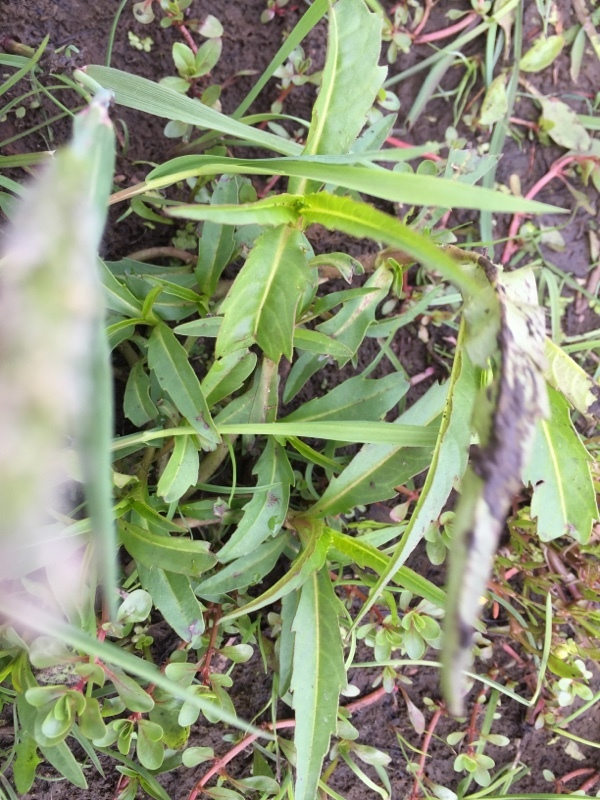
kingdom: Plantae
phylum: Tracheophyta
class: Magnoliopsida
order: Asterales
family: Asteraceae
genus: Bidens
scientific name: Bidens cernua
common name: Nodding bur-marigold
